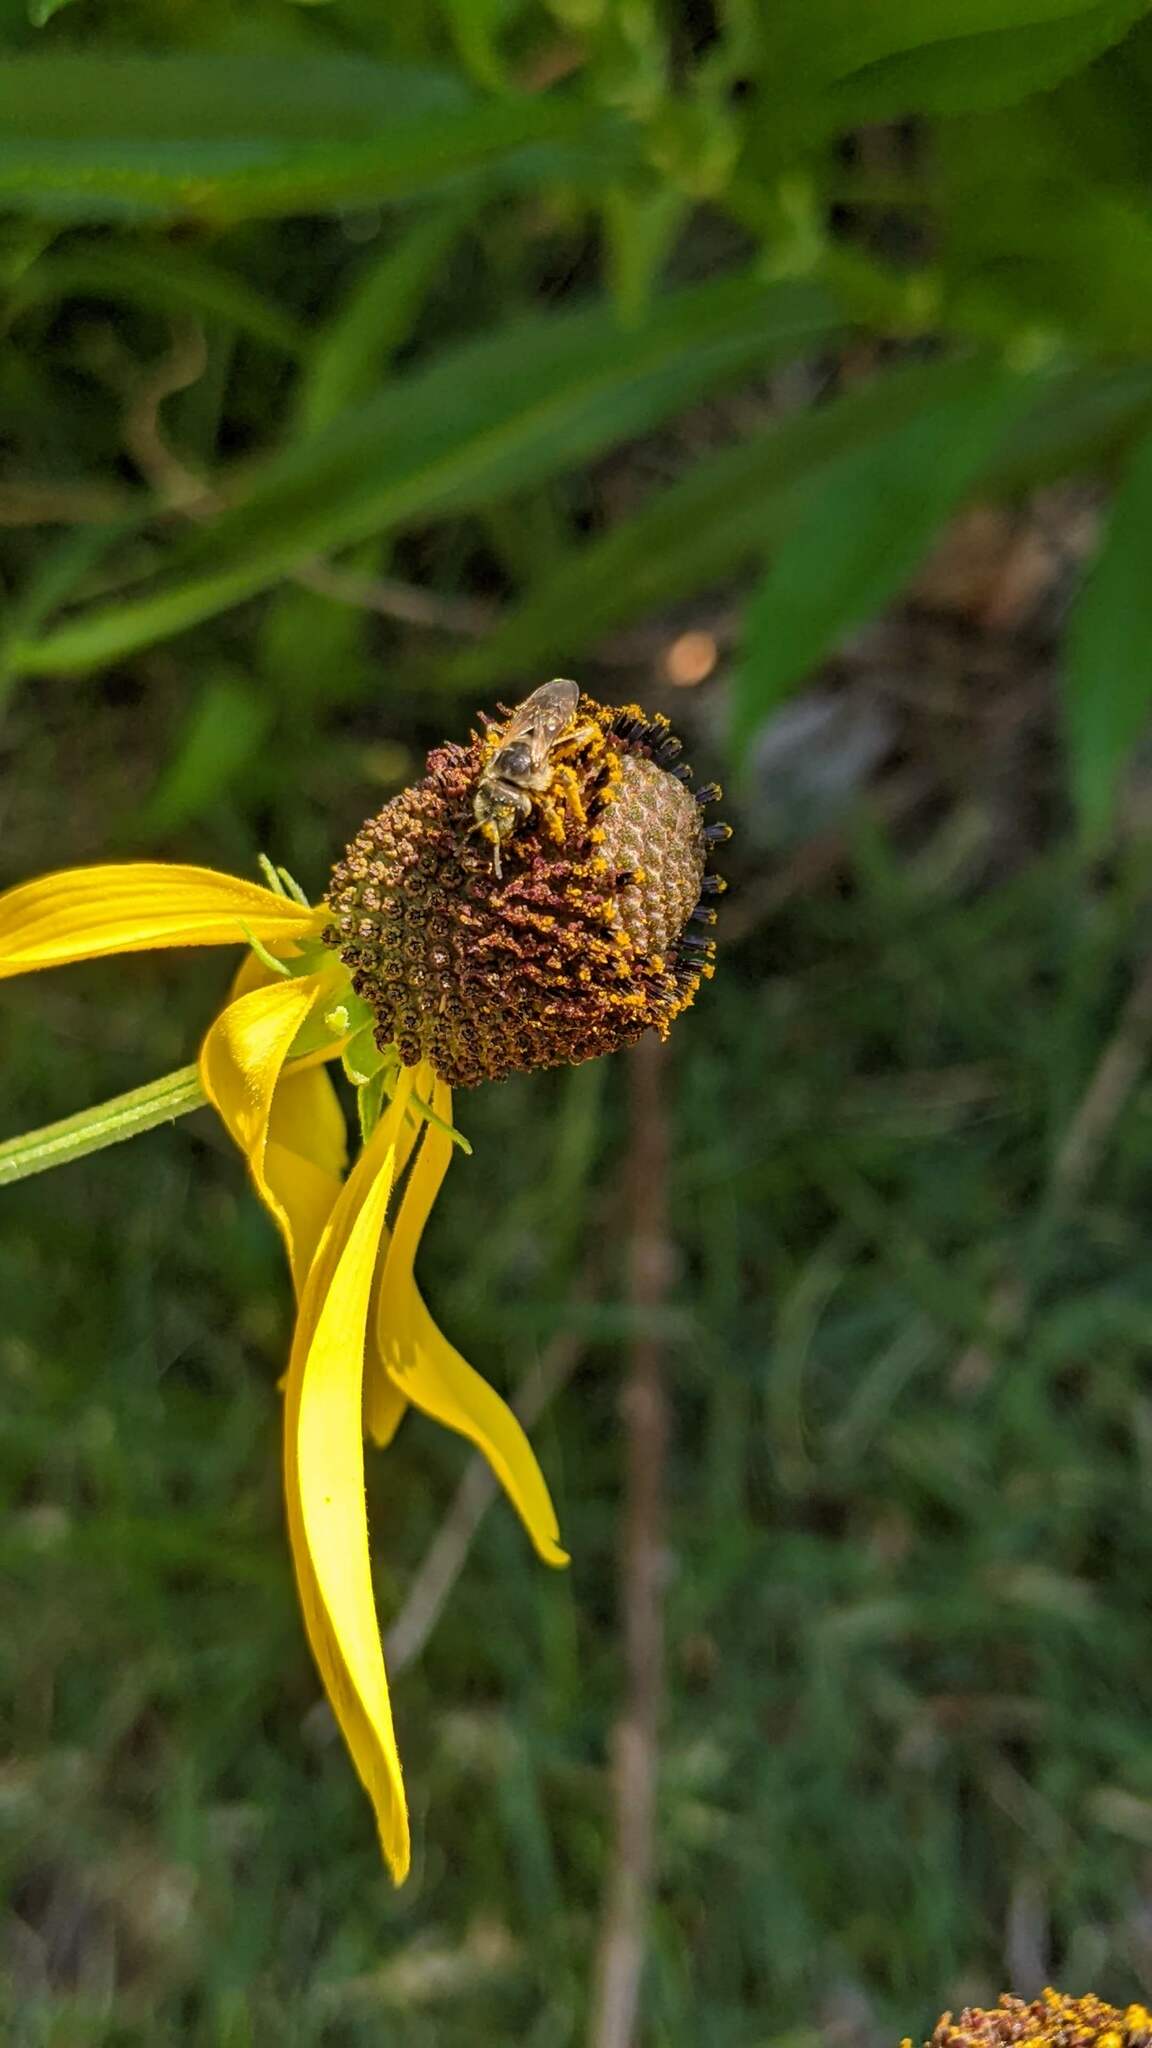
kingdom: Animalia
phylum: Arthropoda
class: Insecta
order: Hymenoptera
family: Halictidae
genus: Halictus
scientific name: Halictus ligatus
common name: Ligated furrow bee
